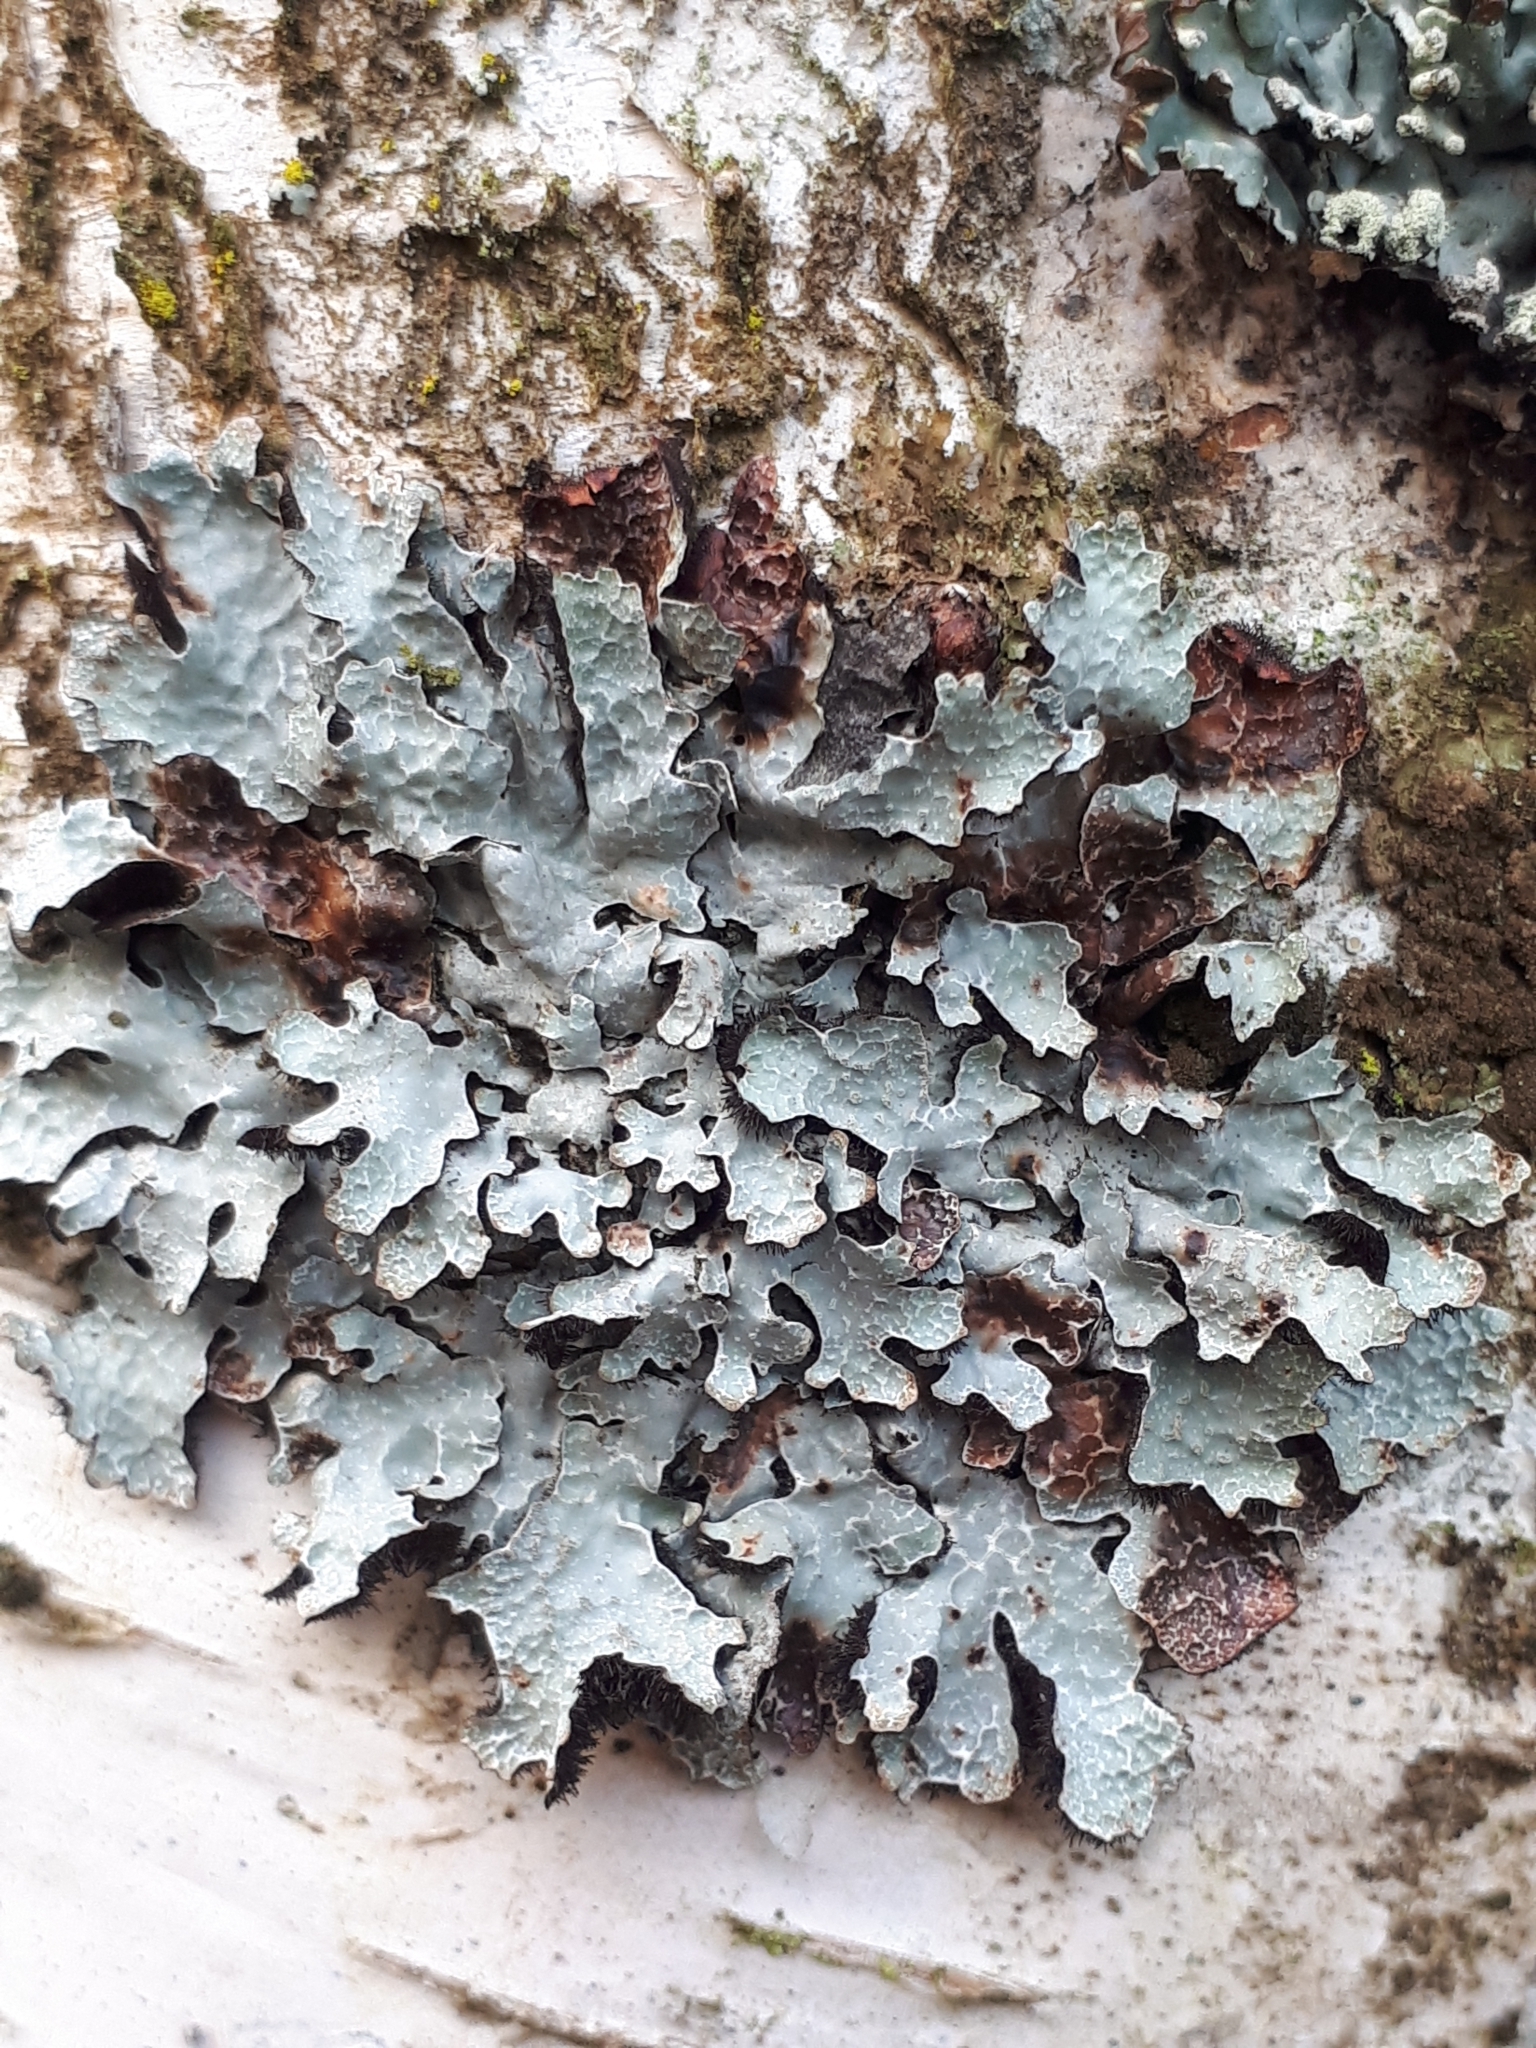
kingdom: Fungi
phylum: Ascomycota
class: Lecanoromycetes
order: Lecanorales
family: Parmeliaceae
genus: Parmelia
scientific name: Parmelia sulcata
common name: Netted shield lichen
